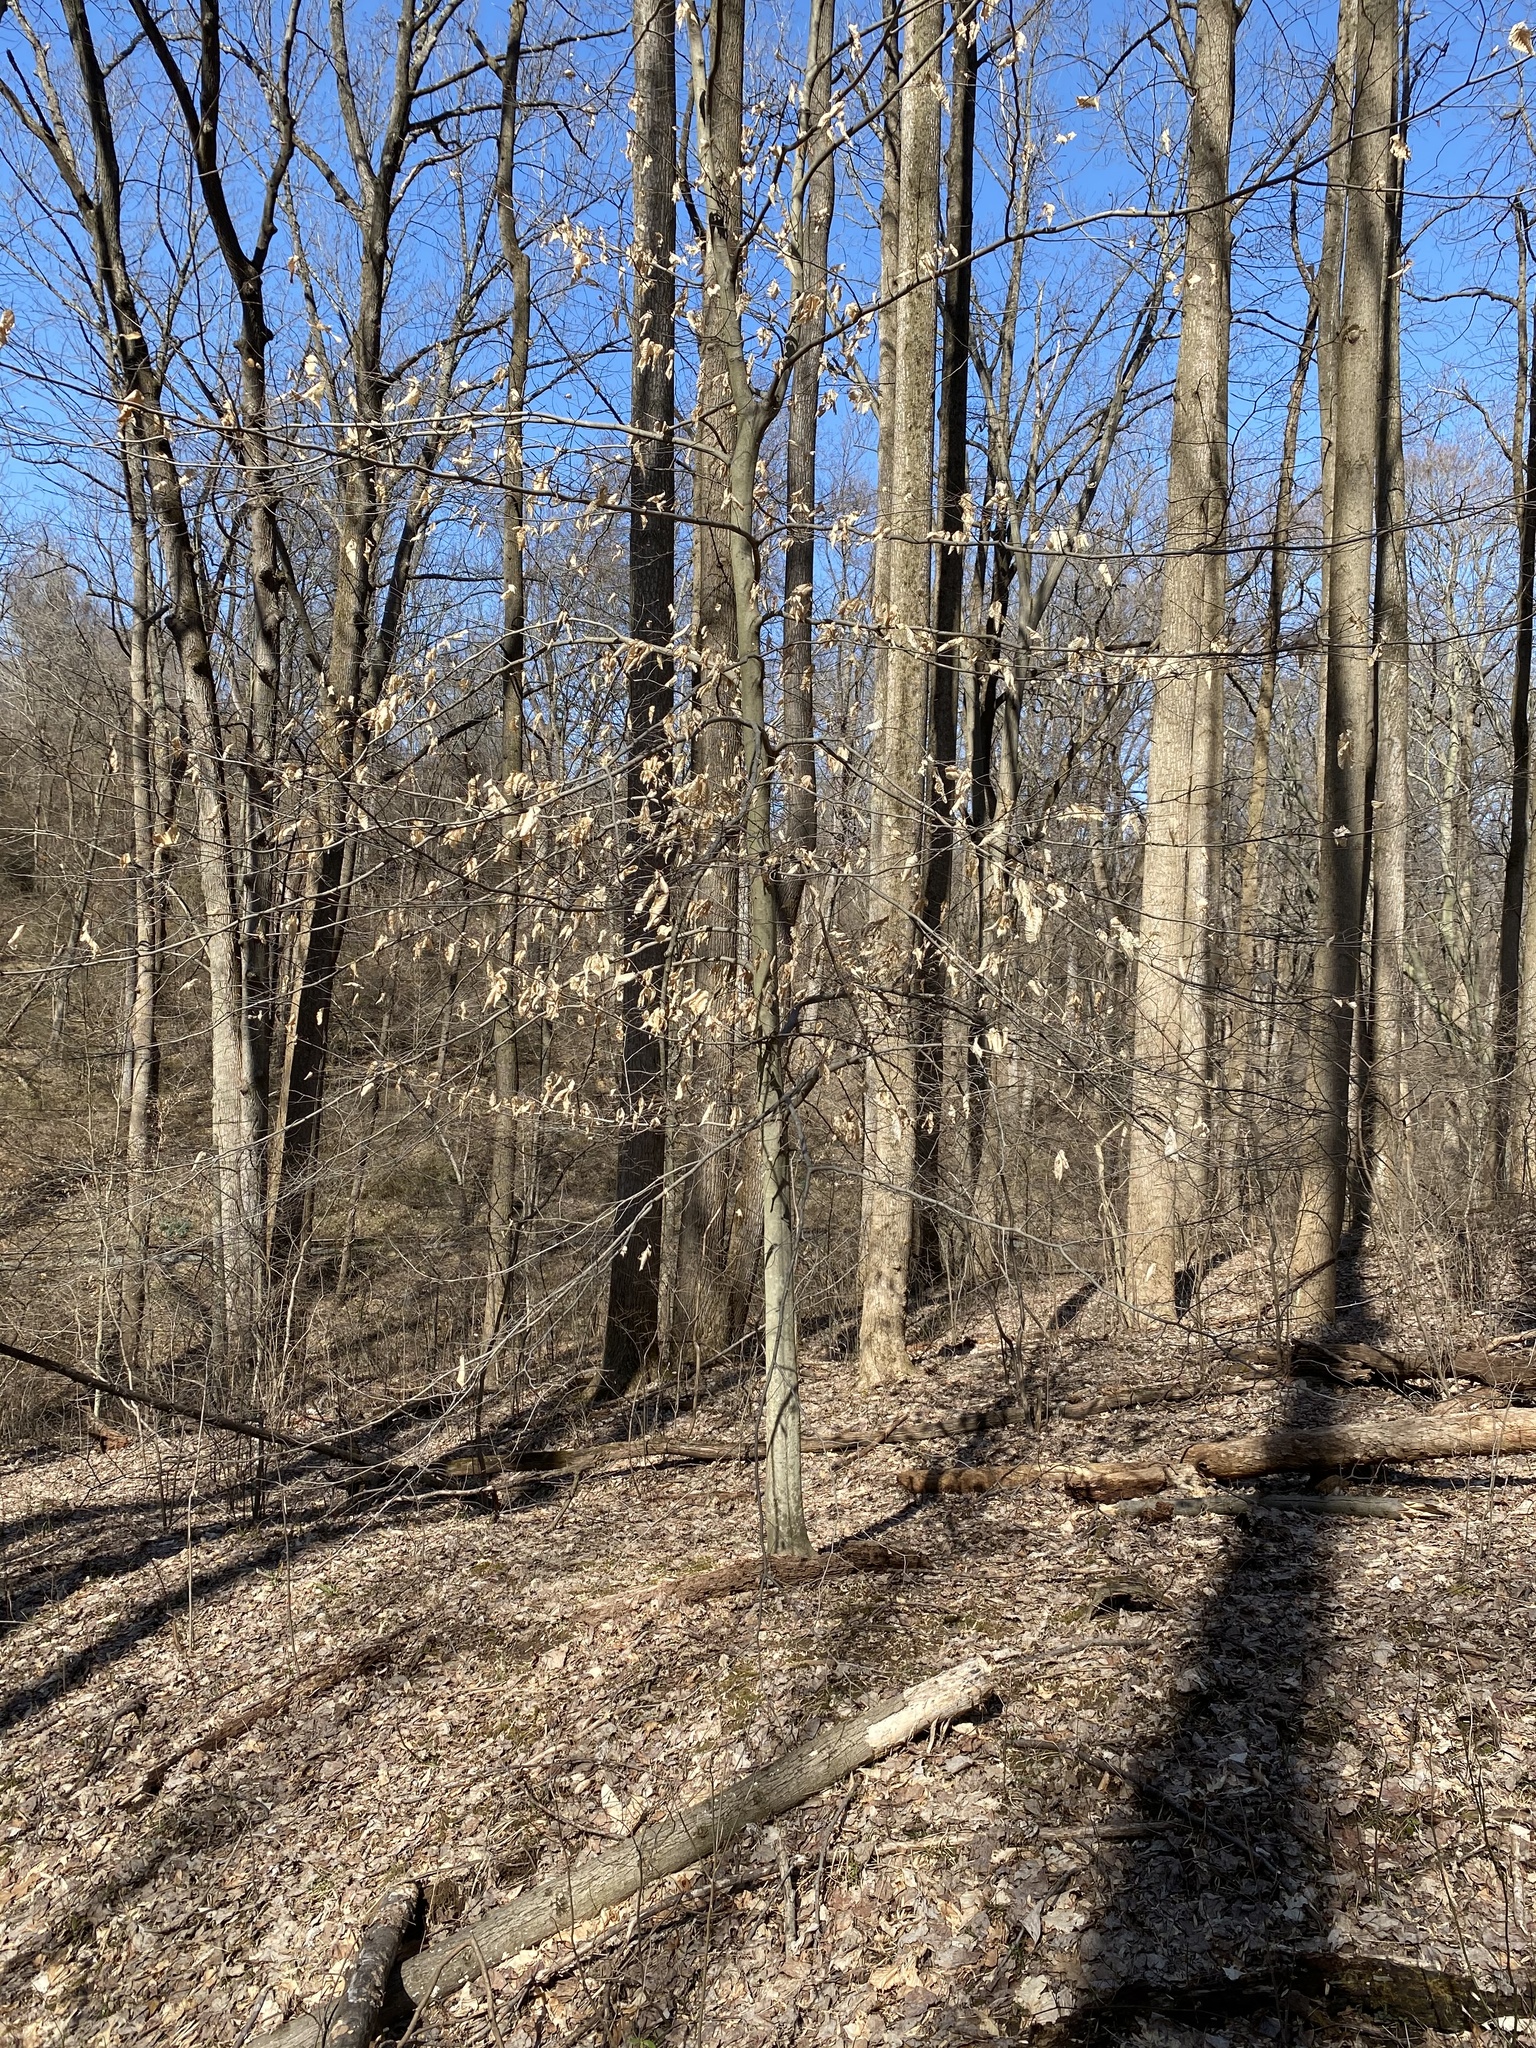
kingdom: Plantae
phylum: Tracheophyta
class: Magnoliopsida
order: Fagales
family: Fagaceae
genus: Fagus
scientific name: Fagus grandifolia
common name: American beech
